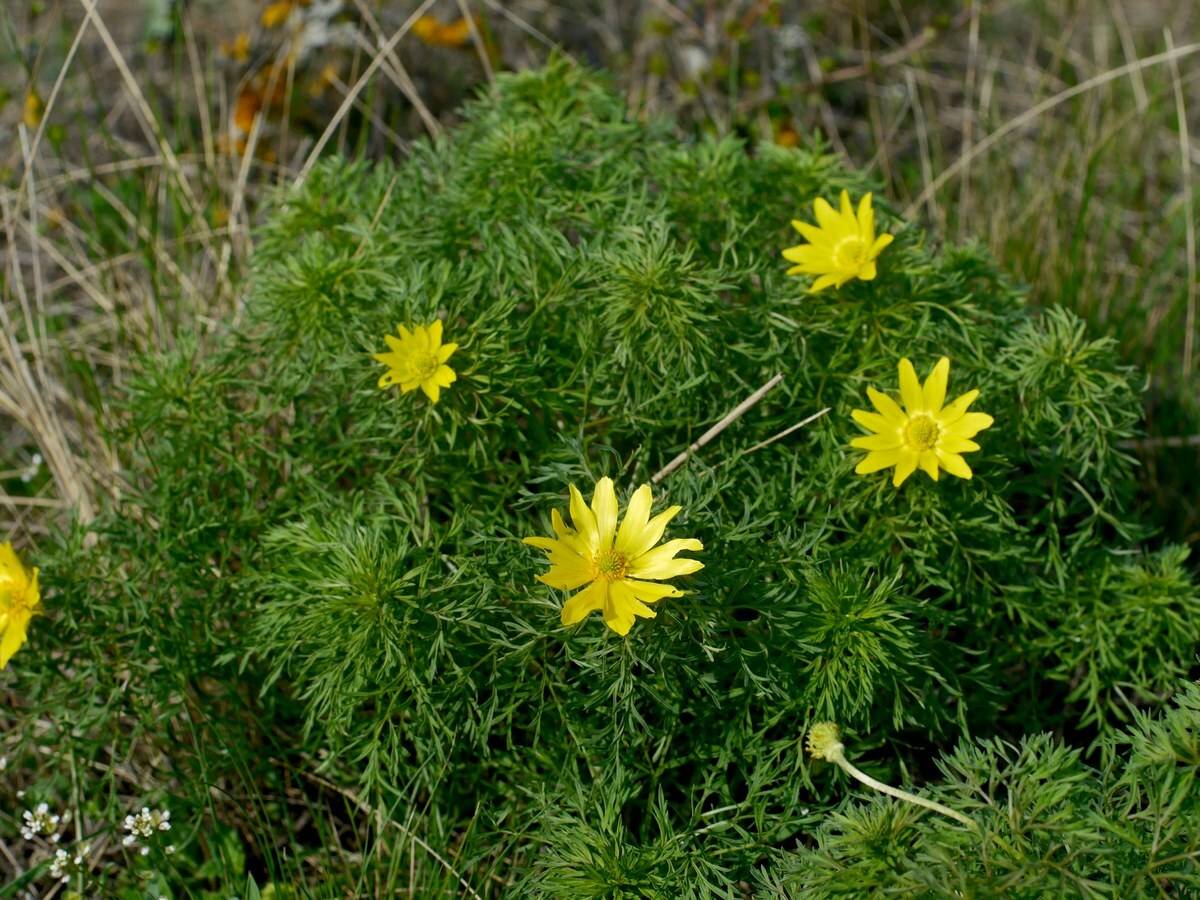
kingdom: Plantae
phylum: Tracheophyta
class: Magnoliopsida
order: Ranunculales
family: Ranunculaceae
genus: Adonis
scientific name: Adonis volgensis
